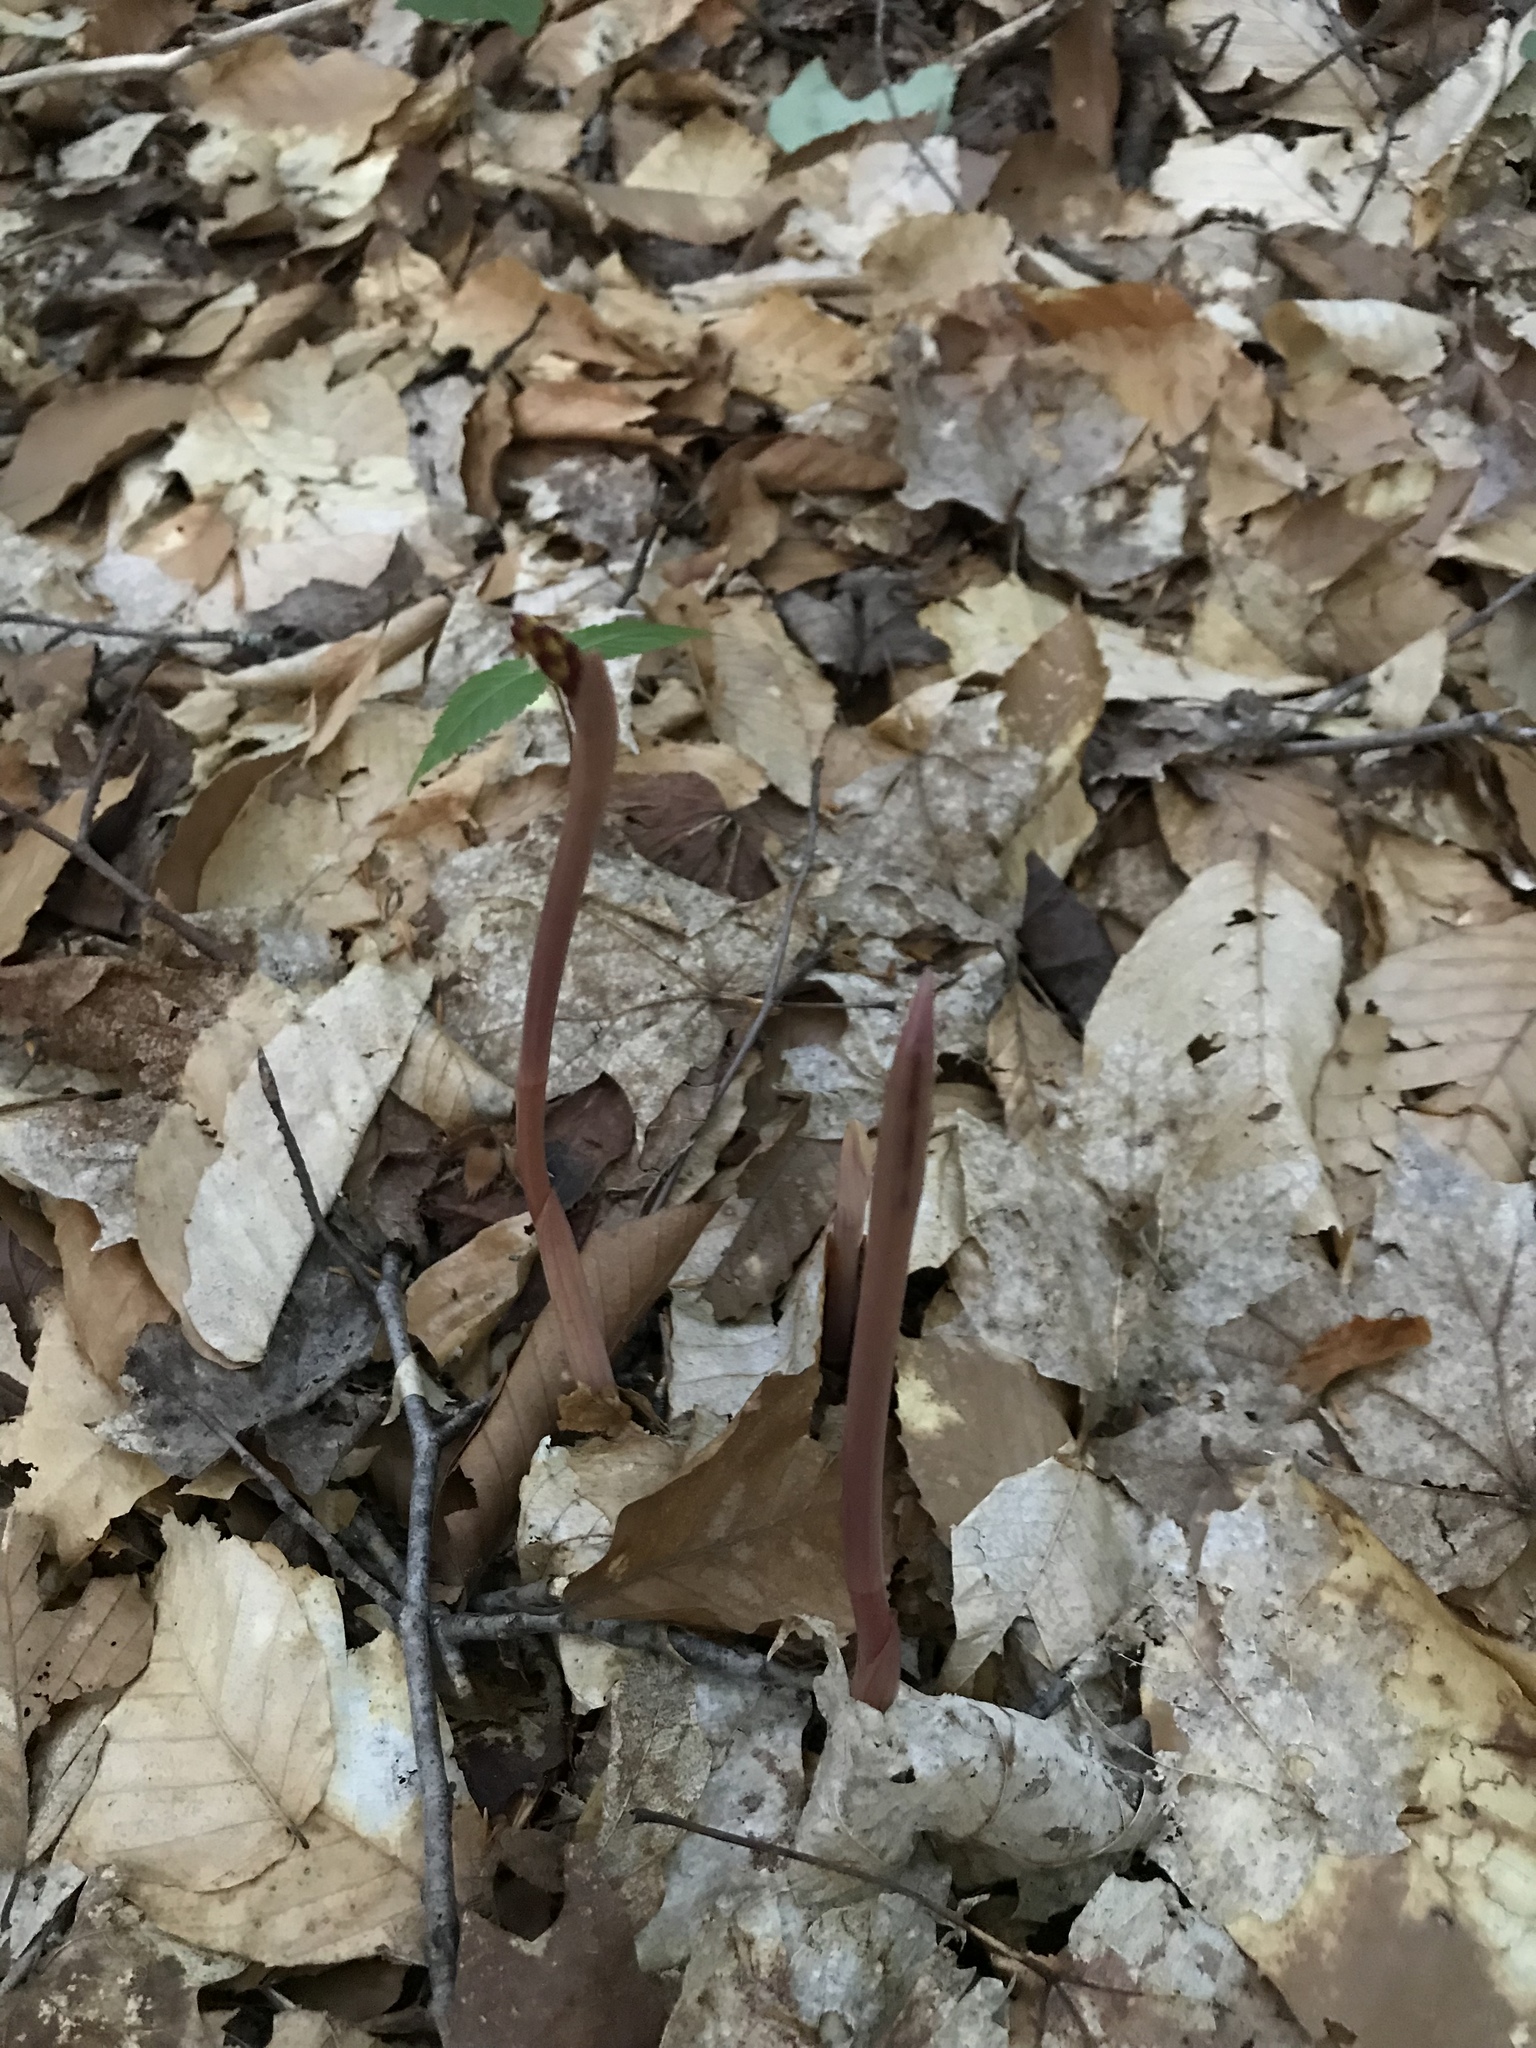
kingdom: Plantae
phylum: Tracheophyta
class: Liliopsida
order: Asparagales
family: Orchidaceae
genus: Corallorhiza
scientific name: Corallorhiza maculata
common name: Spotted coralroot
